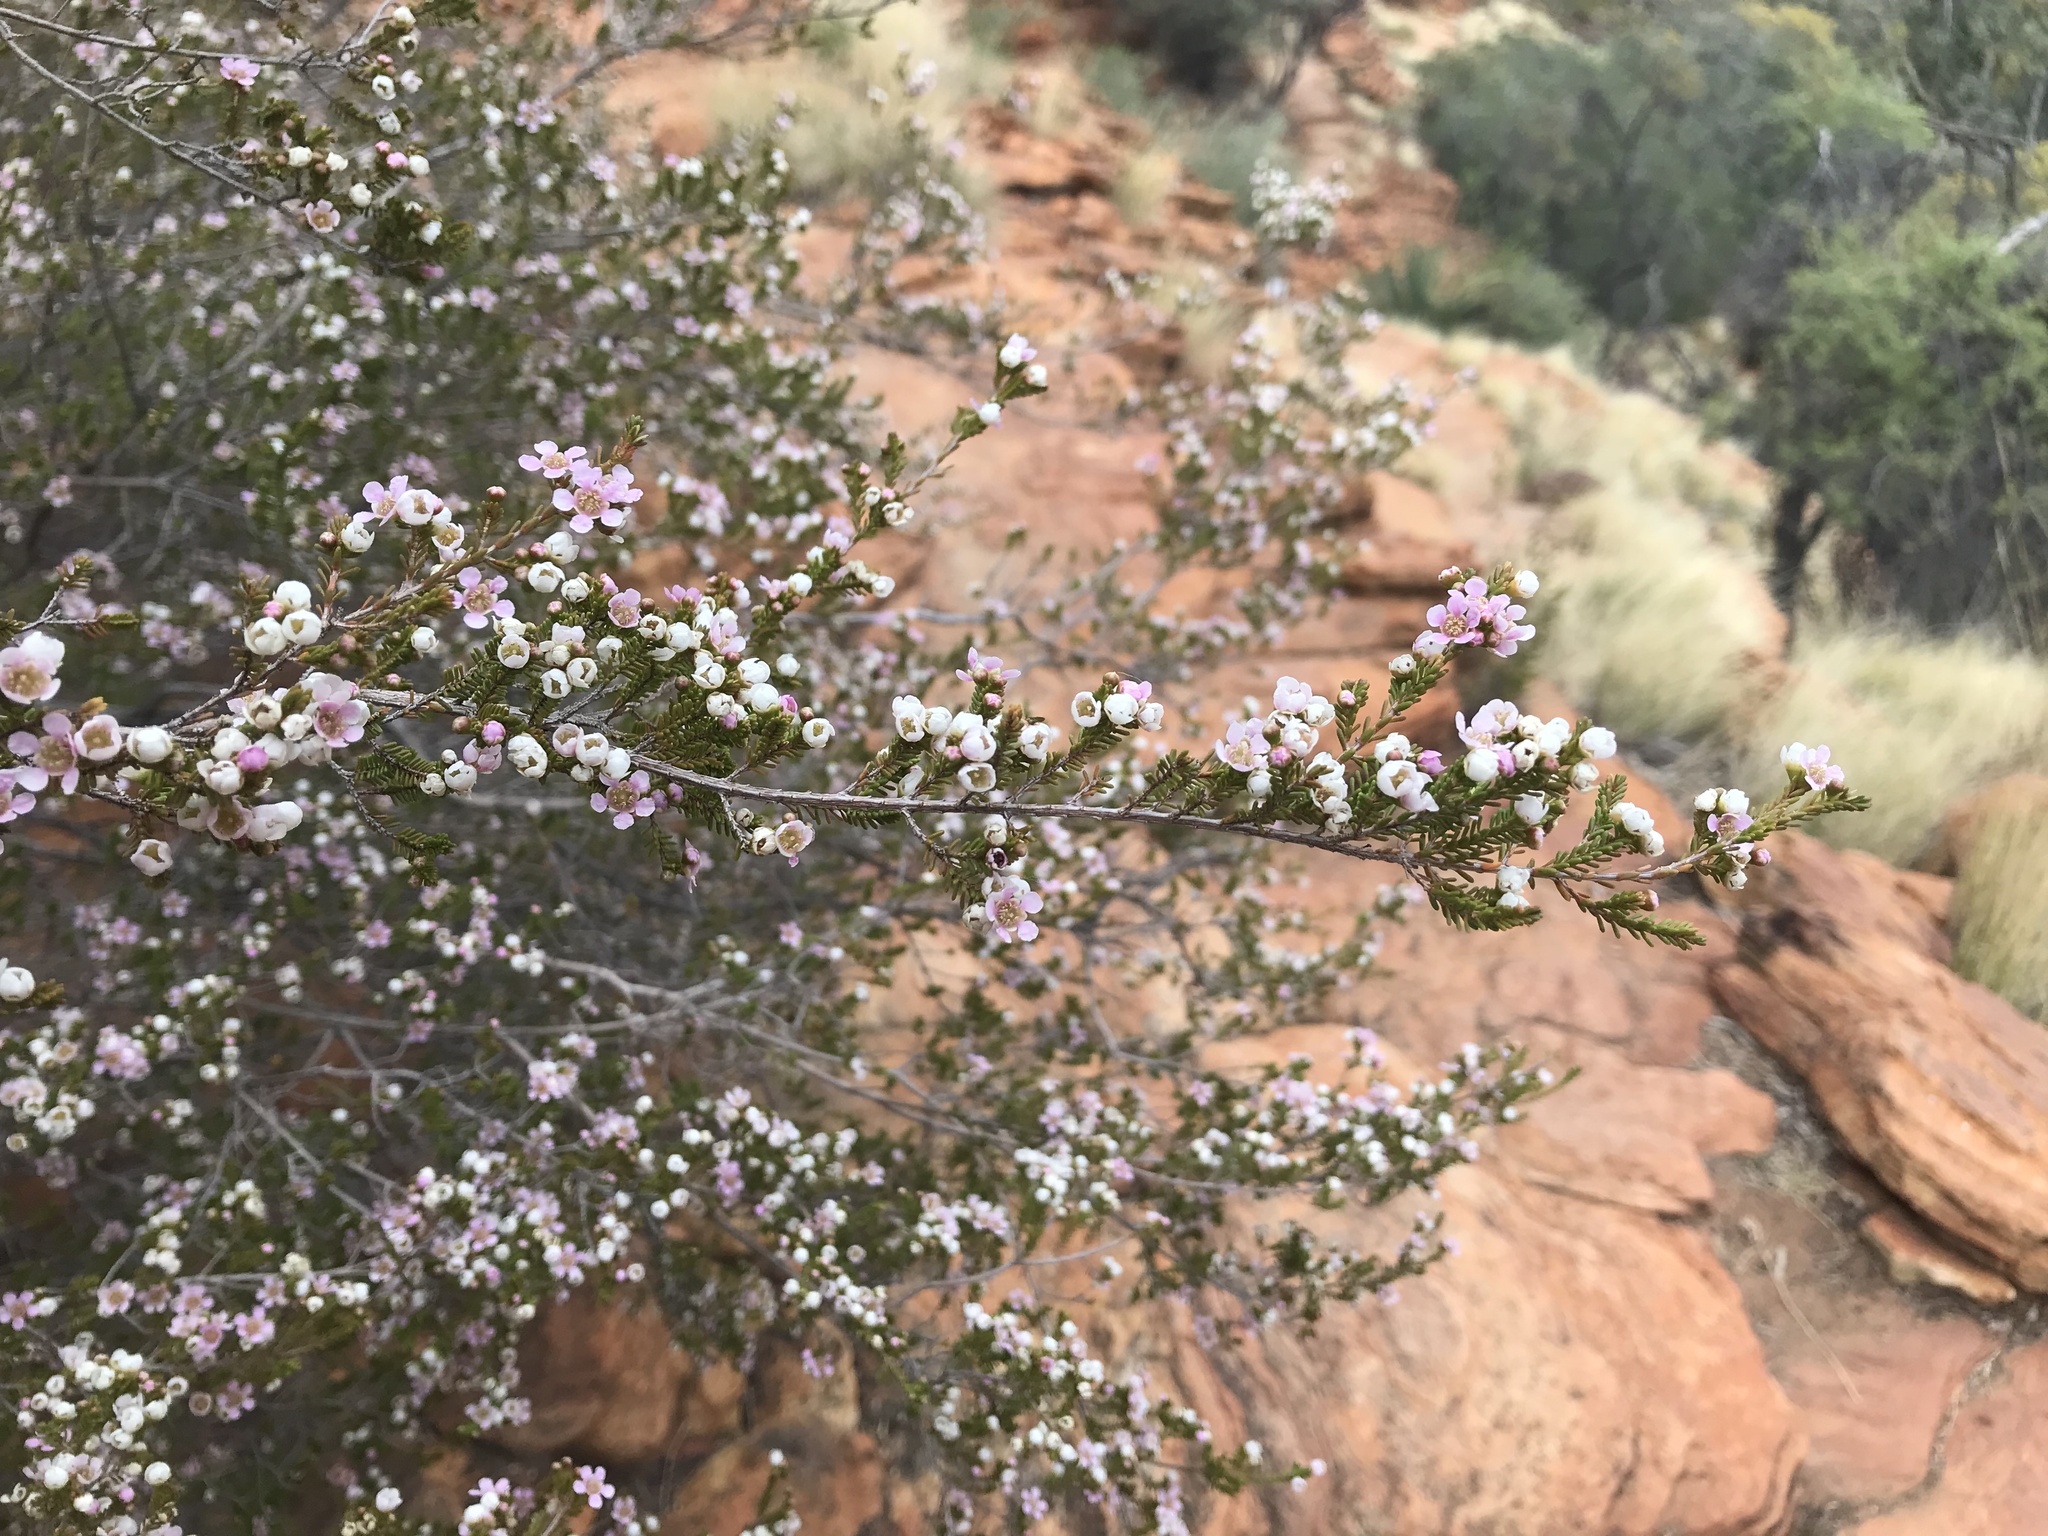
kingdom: Plantae
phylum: Tracheophyta
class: Magnoliopsida
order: Myrtales
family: Myrtaceae
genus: Rinzia
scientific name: Rinzia polystemonea
